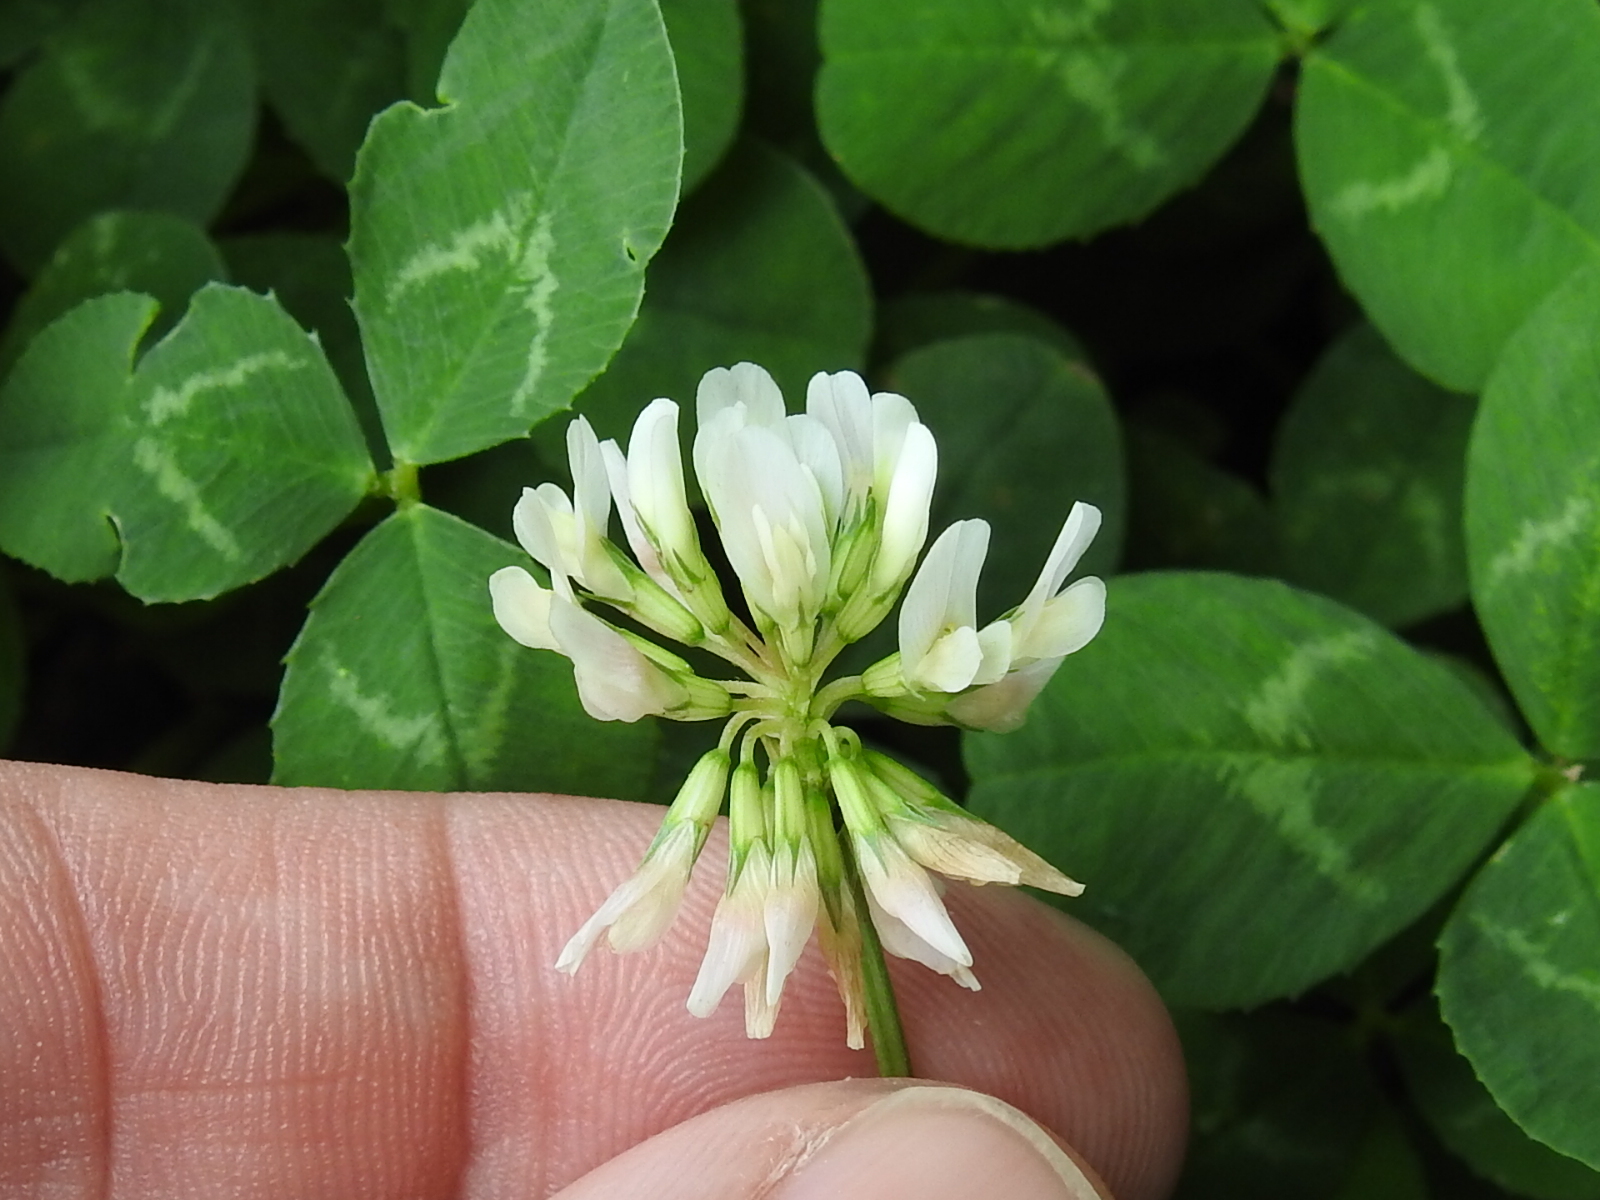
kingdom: Plantae
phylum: Tracheophyta
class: Magnoliopsida
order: Fabales
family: Fabaceae
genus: Trifolium
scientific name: Trifolium repens
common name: White clover
